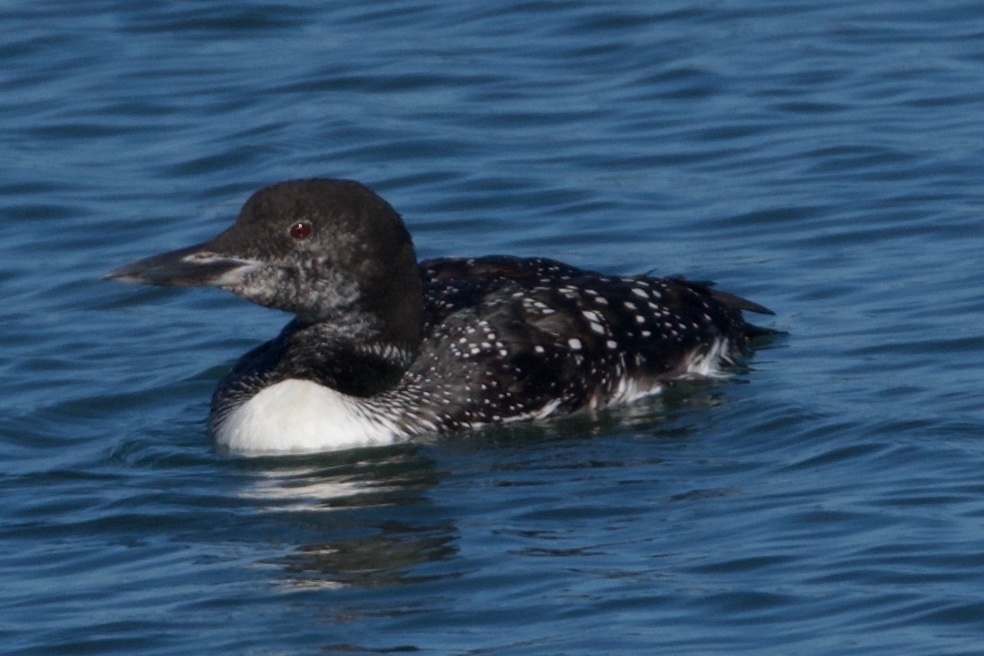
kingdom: Animalia
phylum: Chordata
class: Aves
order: Gaviiformes
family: Gaviidae
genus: Gavia
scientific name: Gavia immer
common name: Common loon
